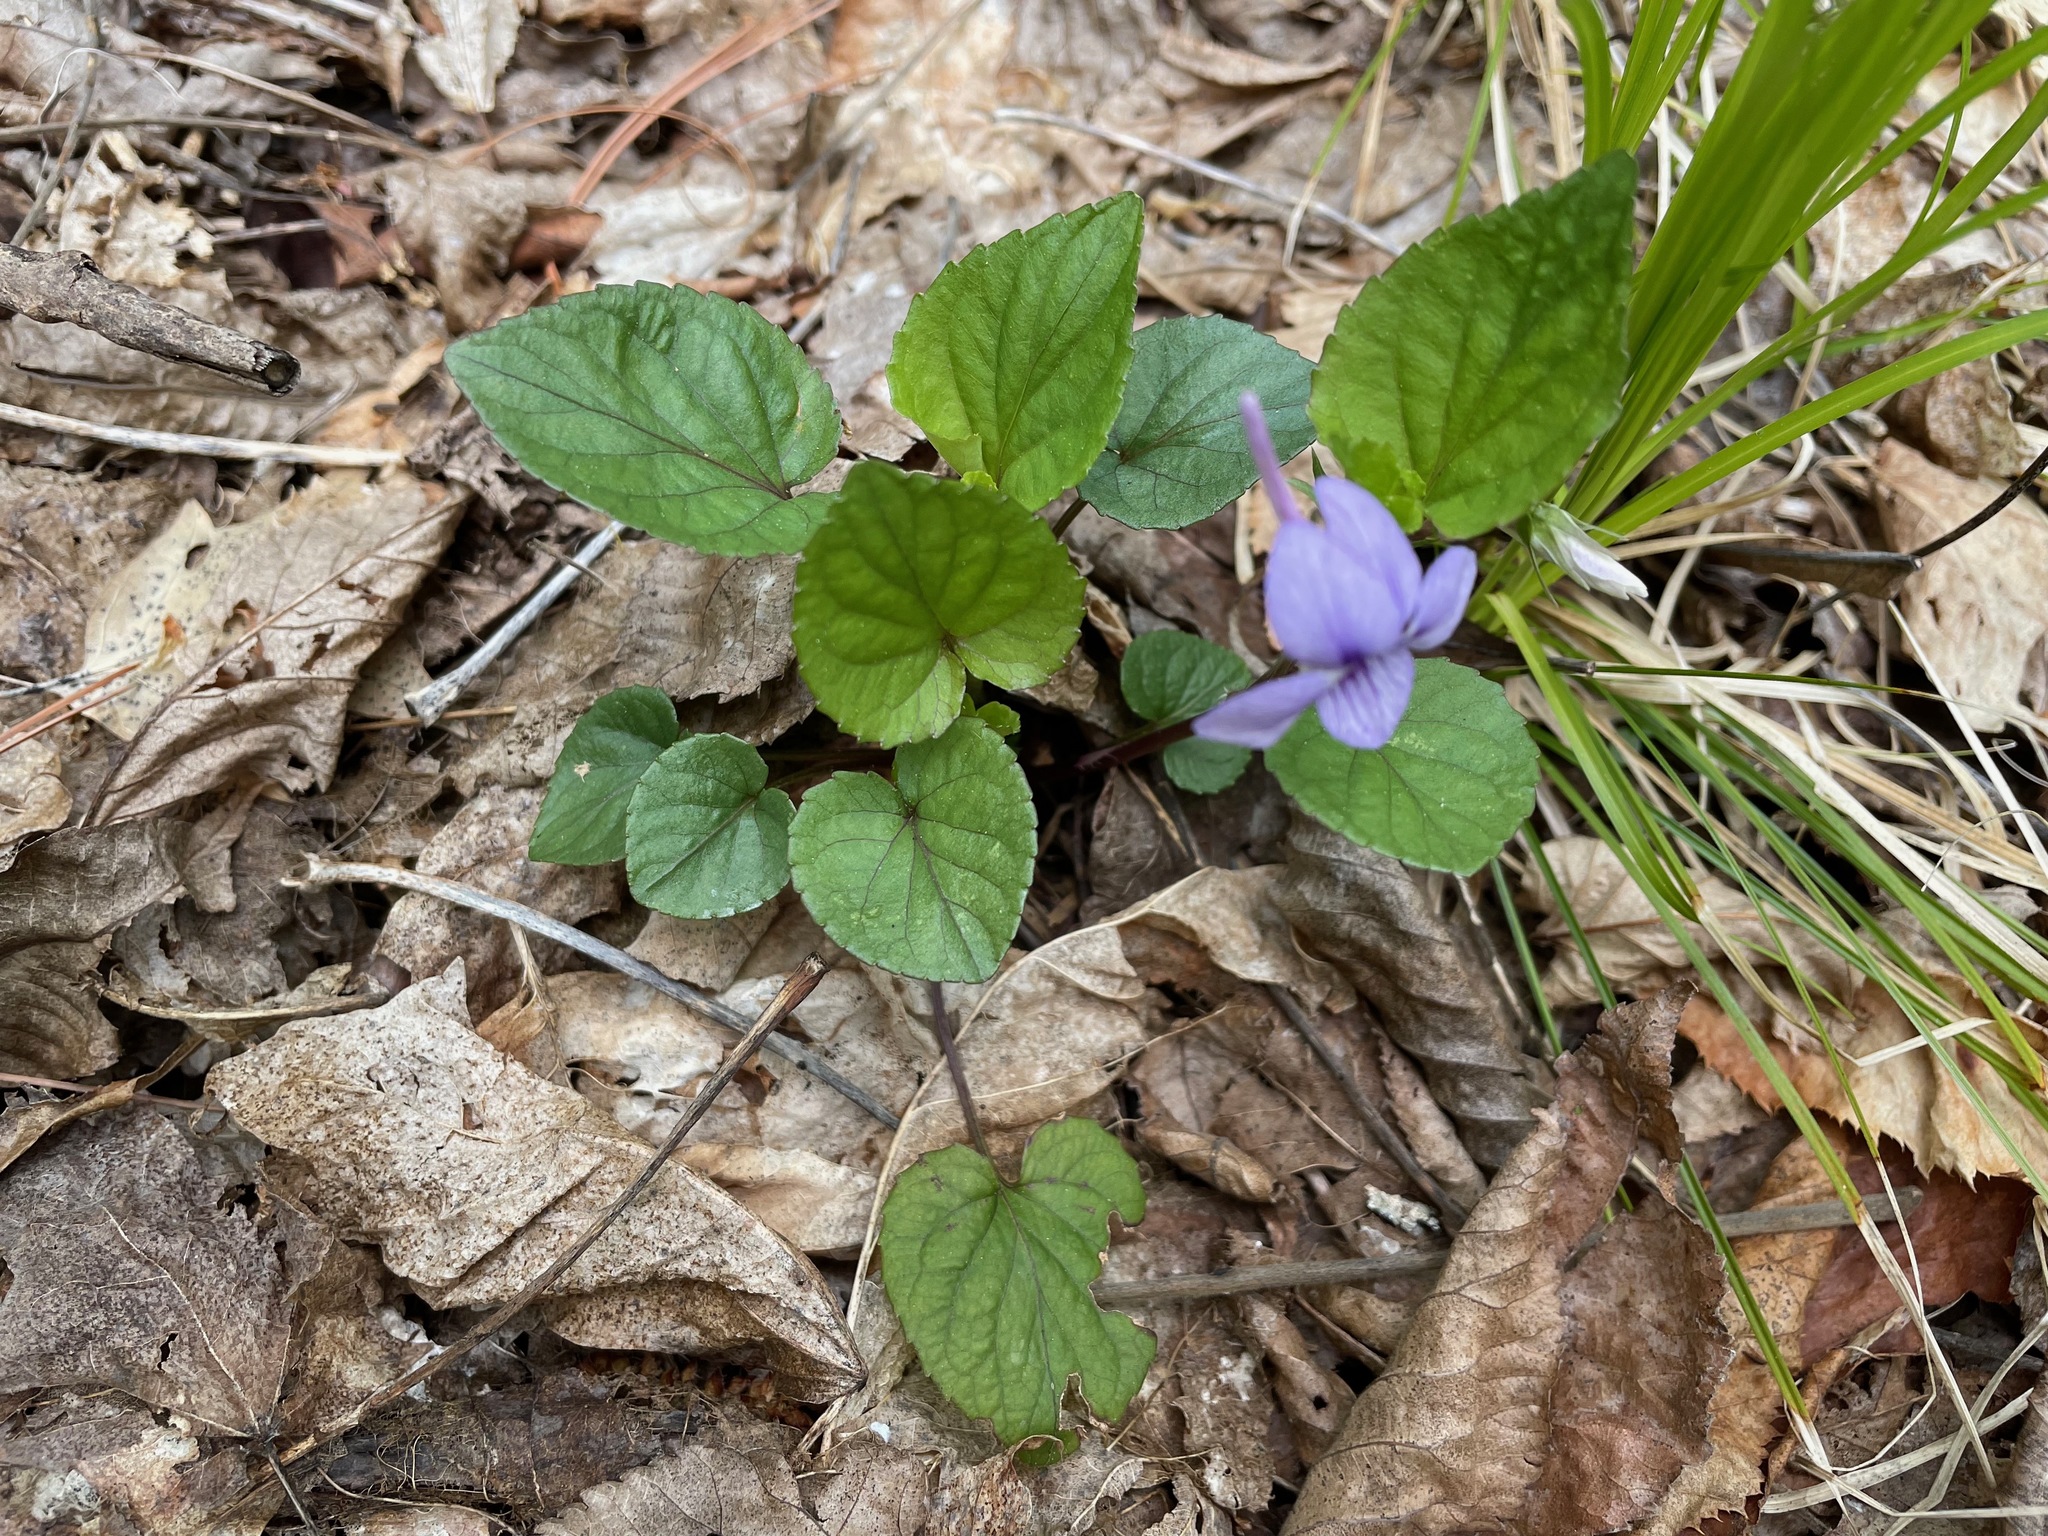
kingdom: Plantae
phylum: Tracheophyta
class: Magnoliopsida
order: Malpighiales
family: Violaceae
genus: Viola
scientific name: Viola rostrata
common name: Long-spur violet
